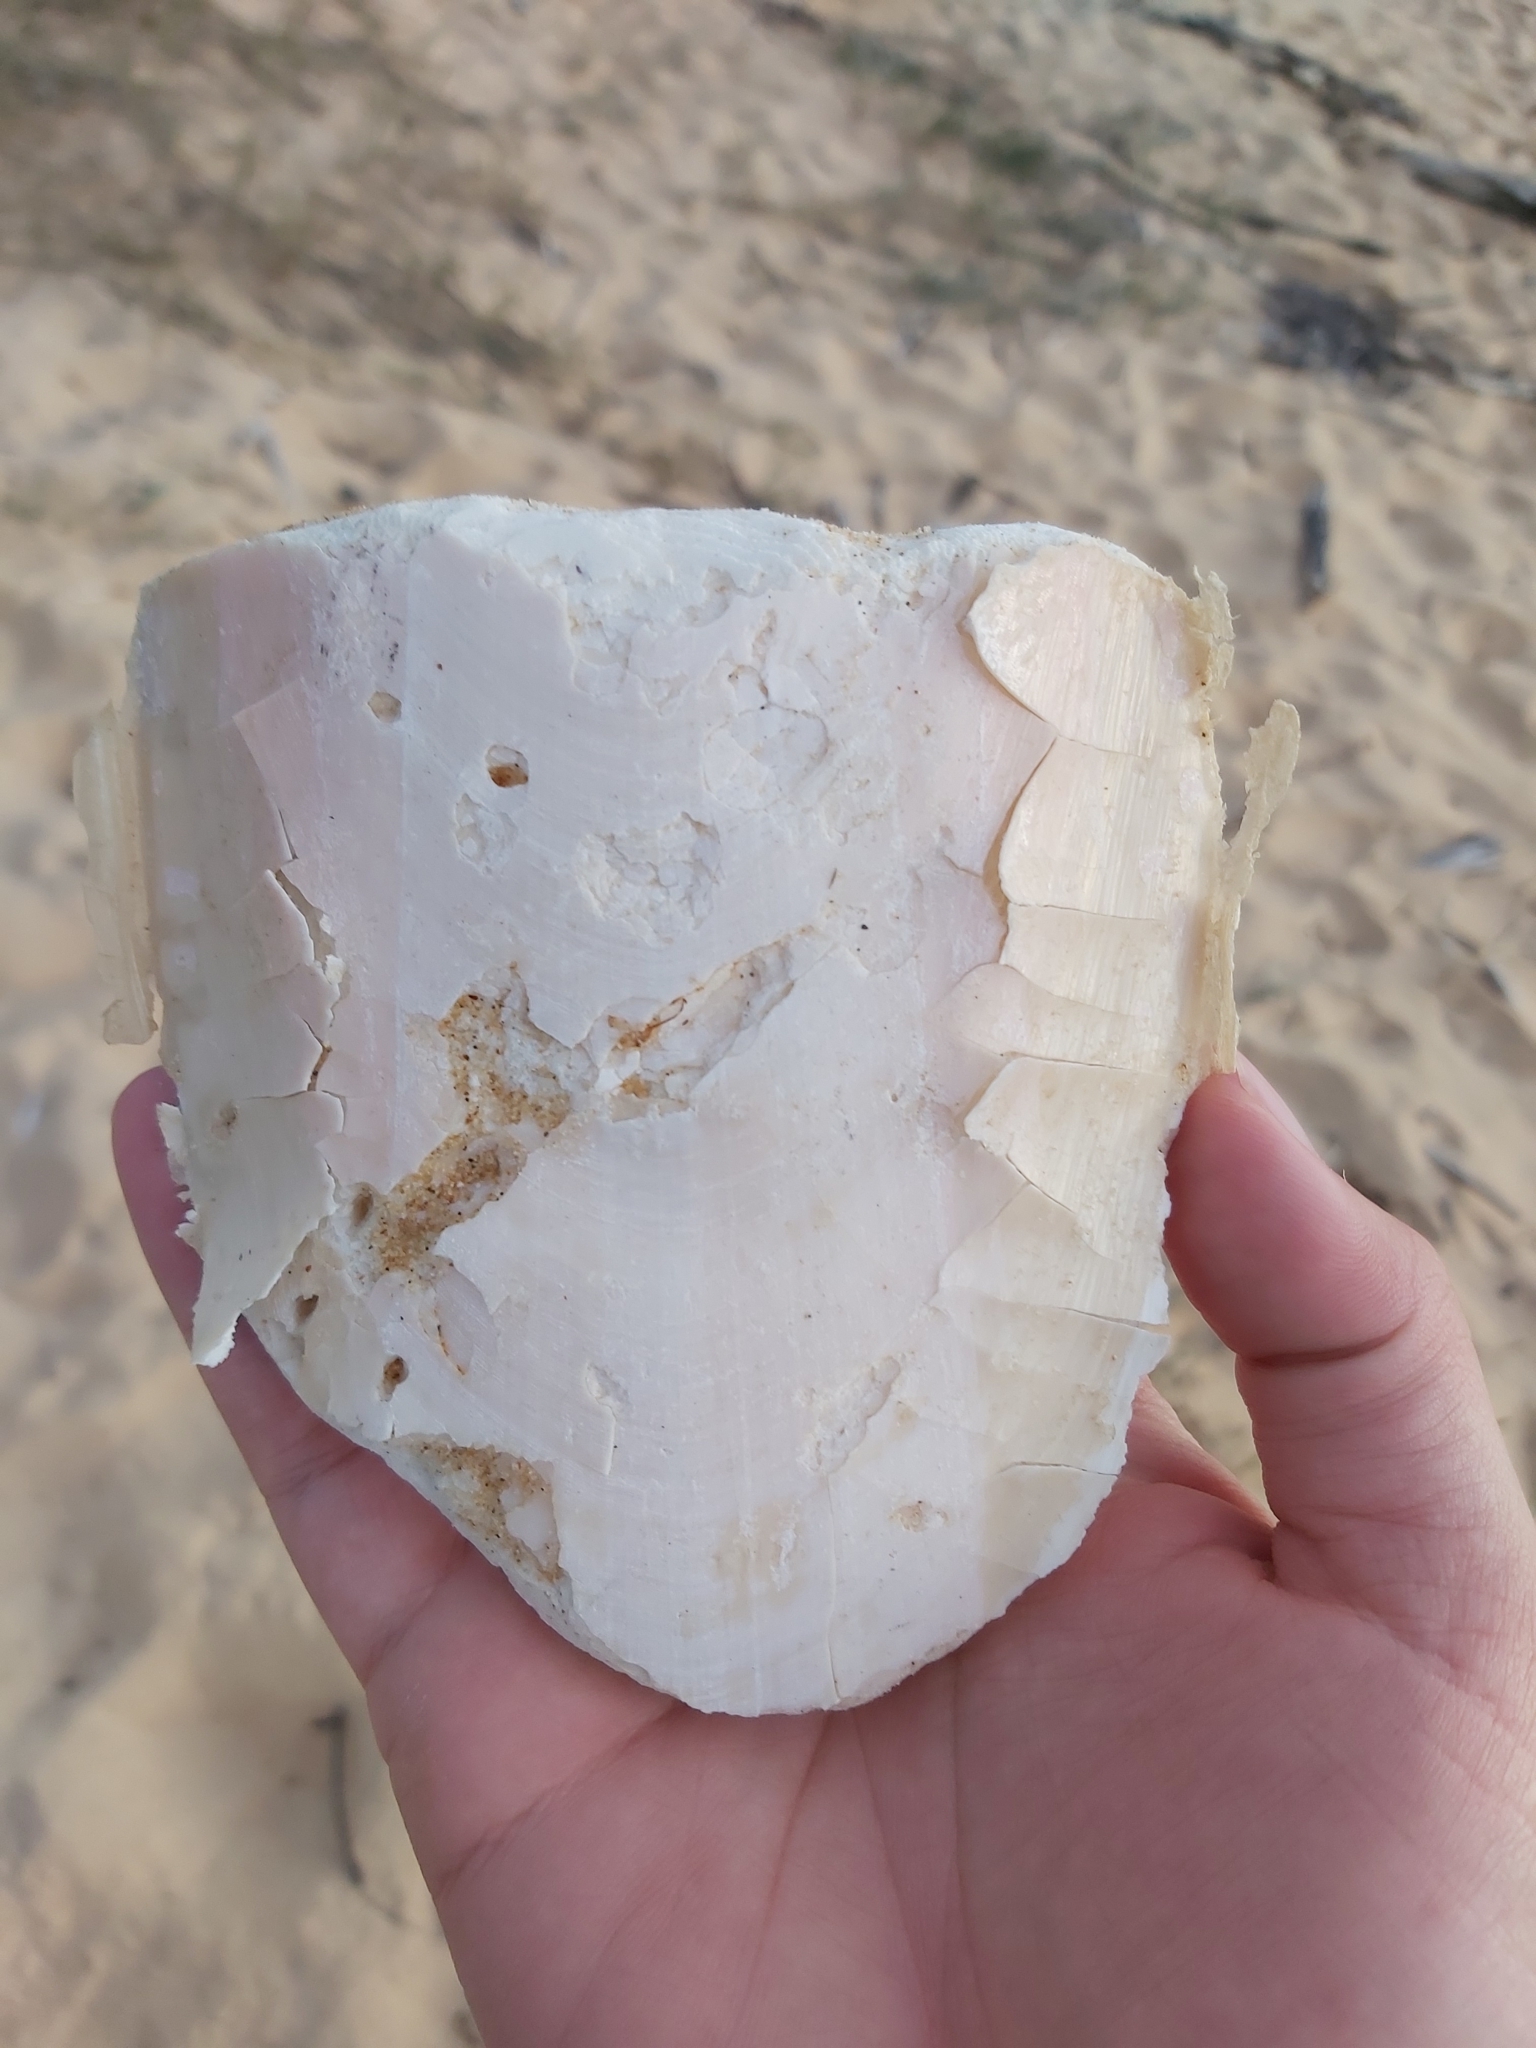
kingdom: Animalia
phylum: Mollusca
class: Cephalopoda
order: Sepiida
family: Sepiidae
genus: Ascarosepion
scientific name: Ascarosepion apama
